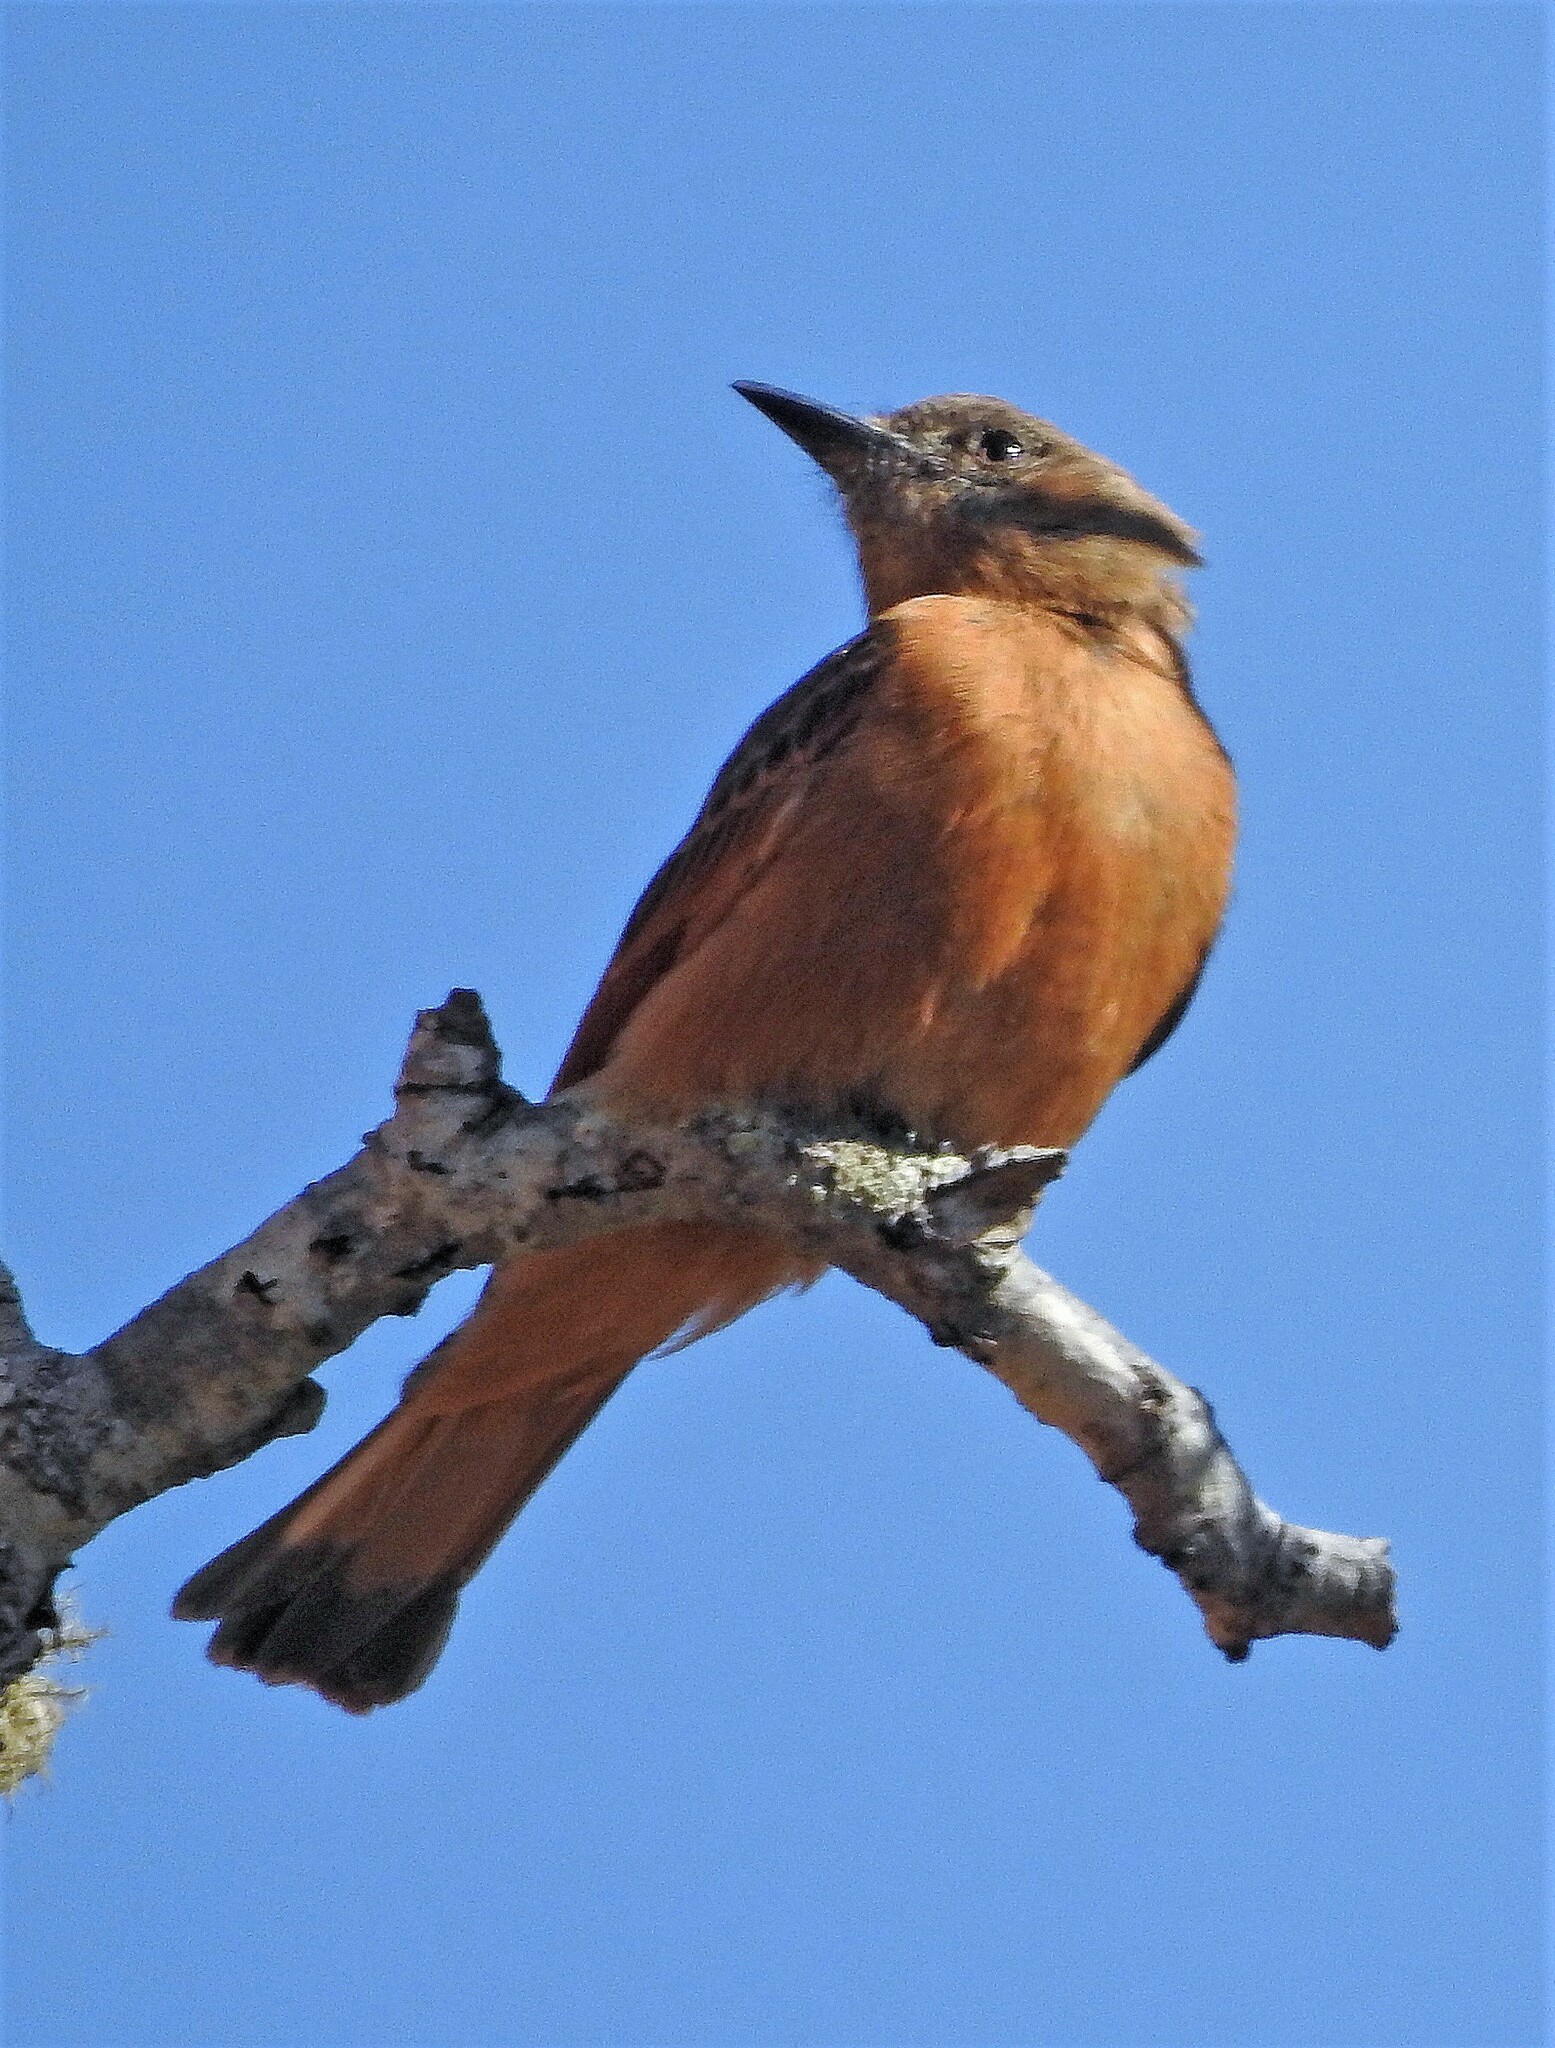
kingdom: Animalia
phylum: Chordata
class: Aves
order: Passeriformes
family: Tyrannidae
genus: Hirundinea
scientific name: Hirundinea ferruginea
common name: Cliff flycatcher
